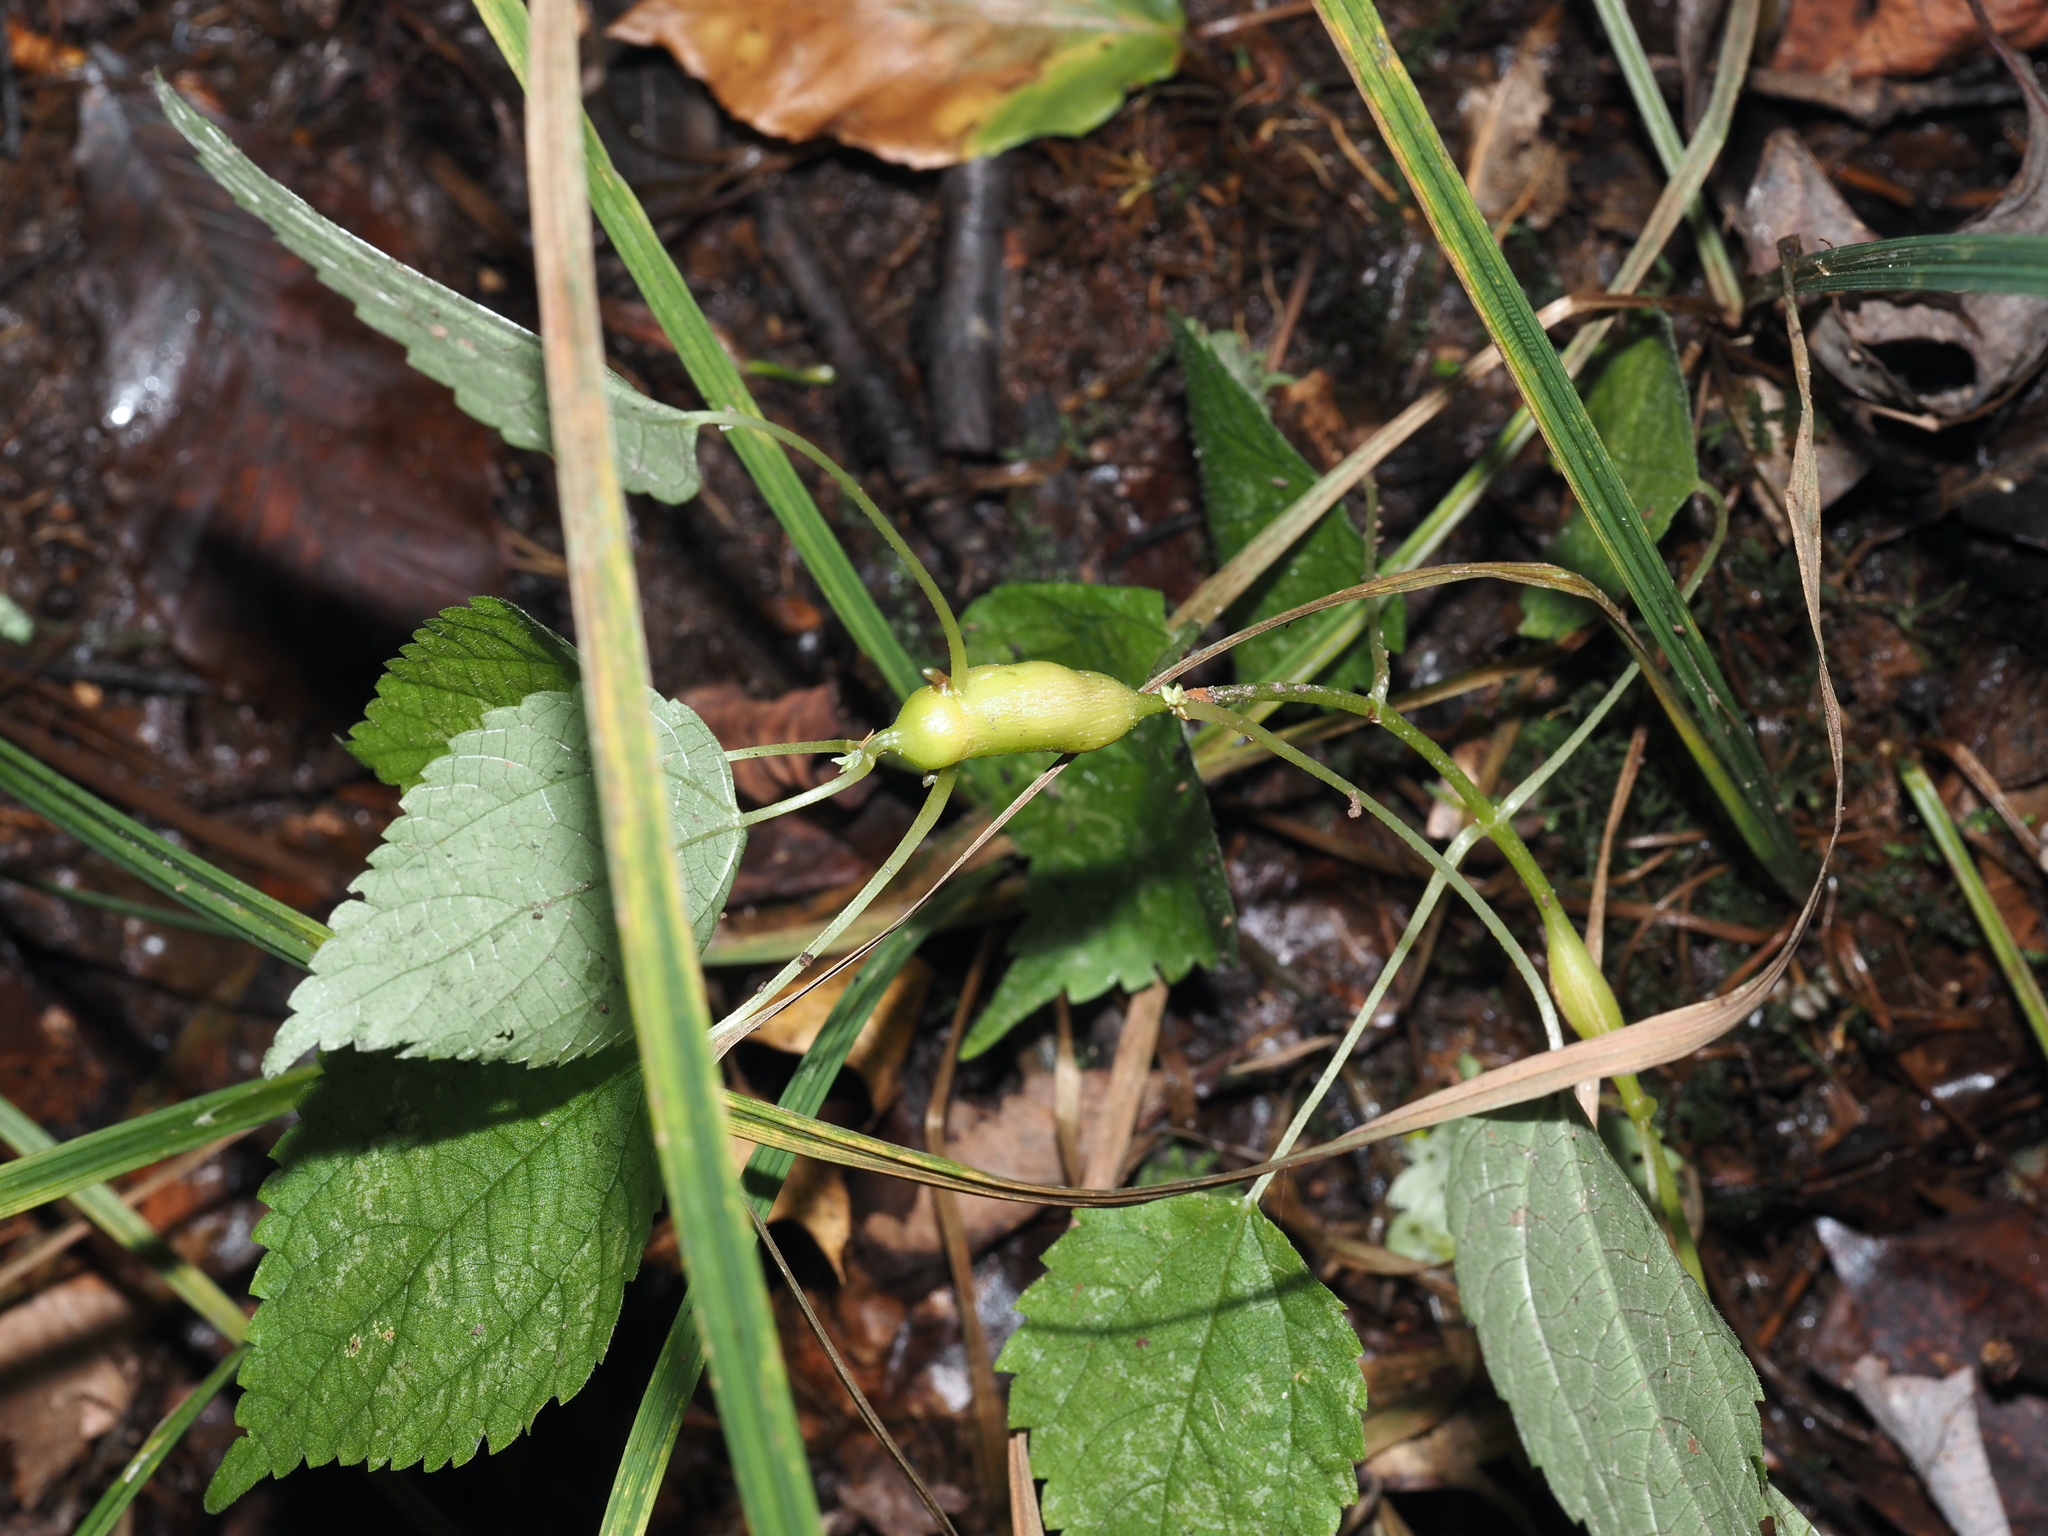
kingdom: Animalia
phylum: Arthropoda
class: Insecta
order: Diptera
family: Cecidomyiidae
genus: Neolasioptera
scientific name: Neolasioptera boehmeriae
